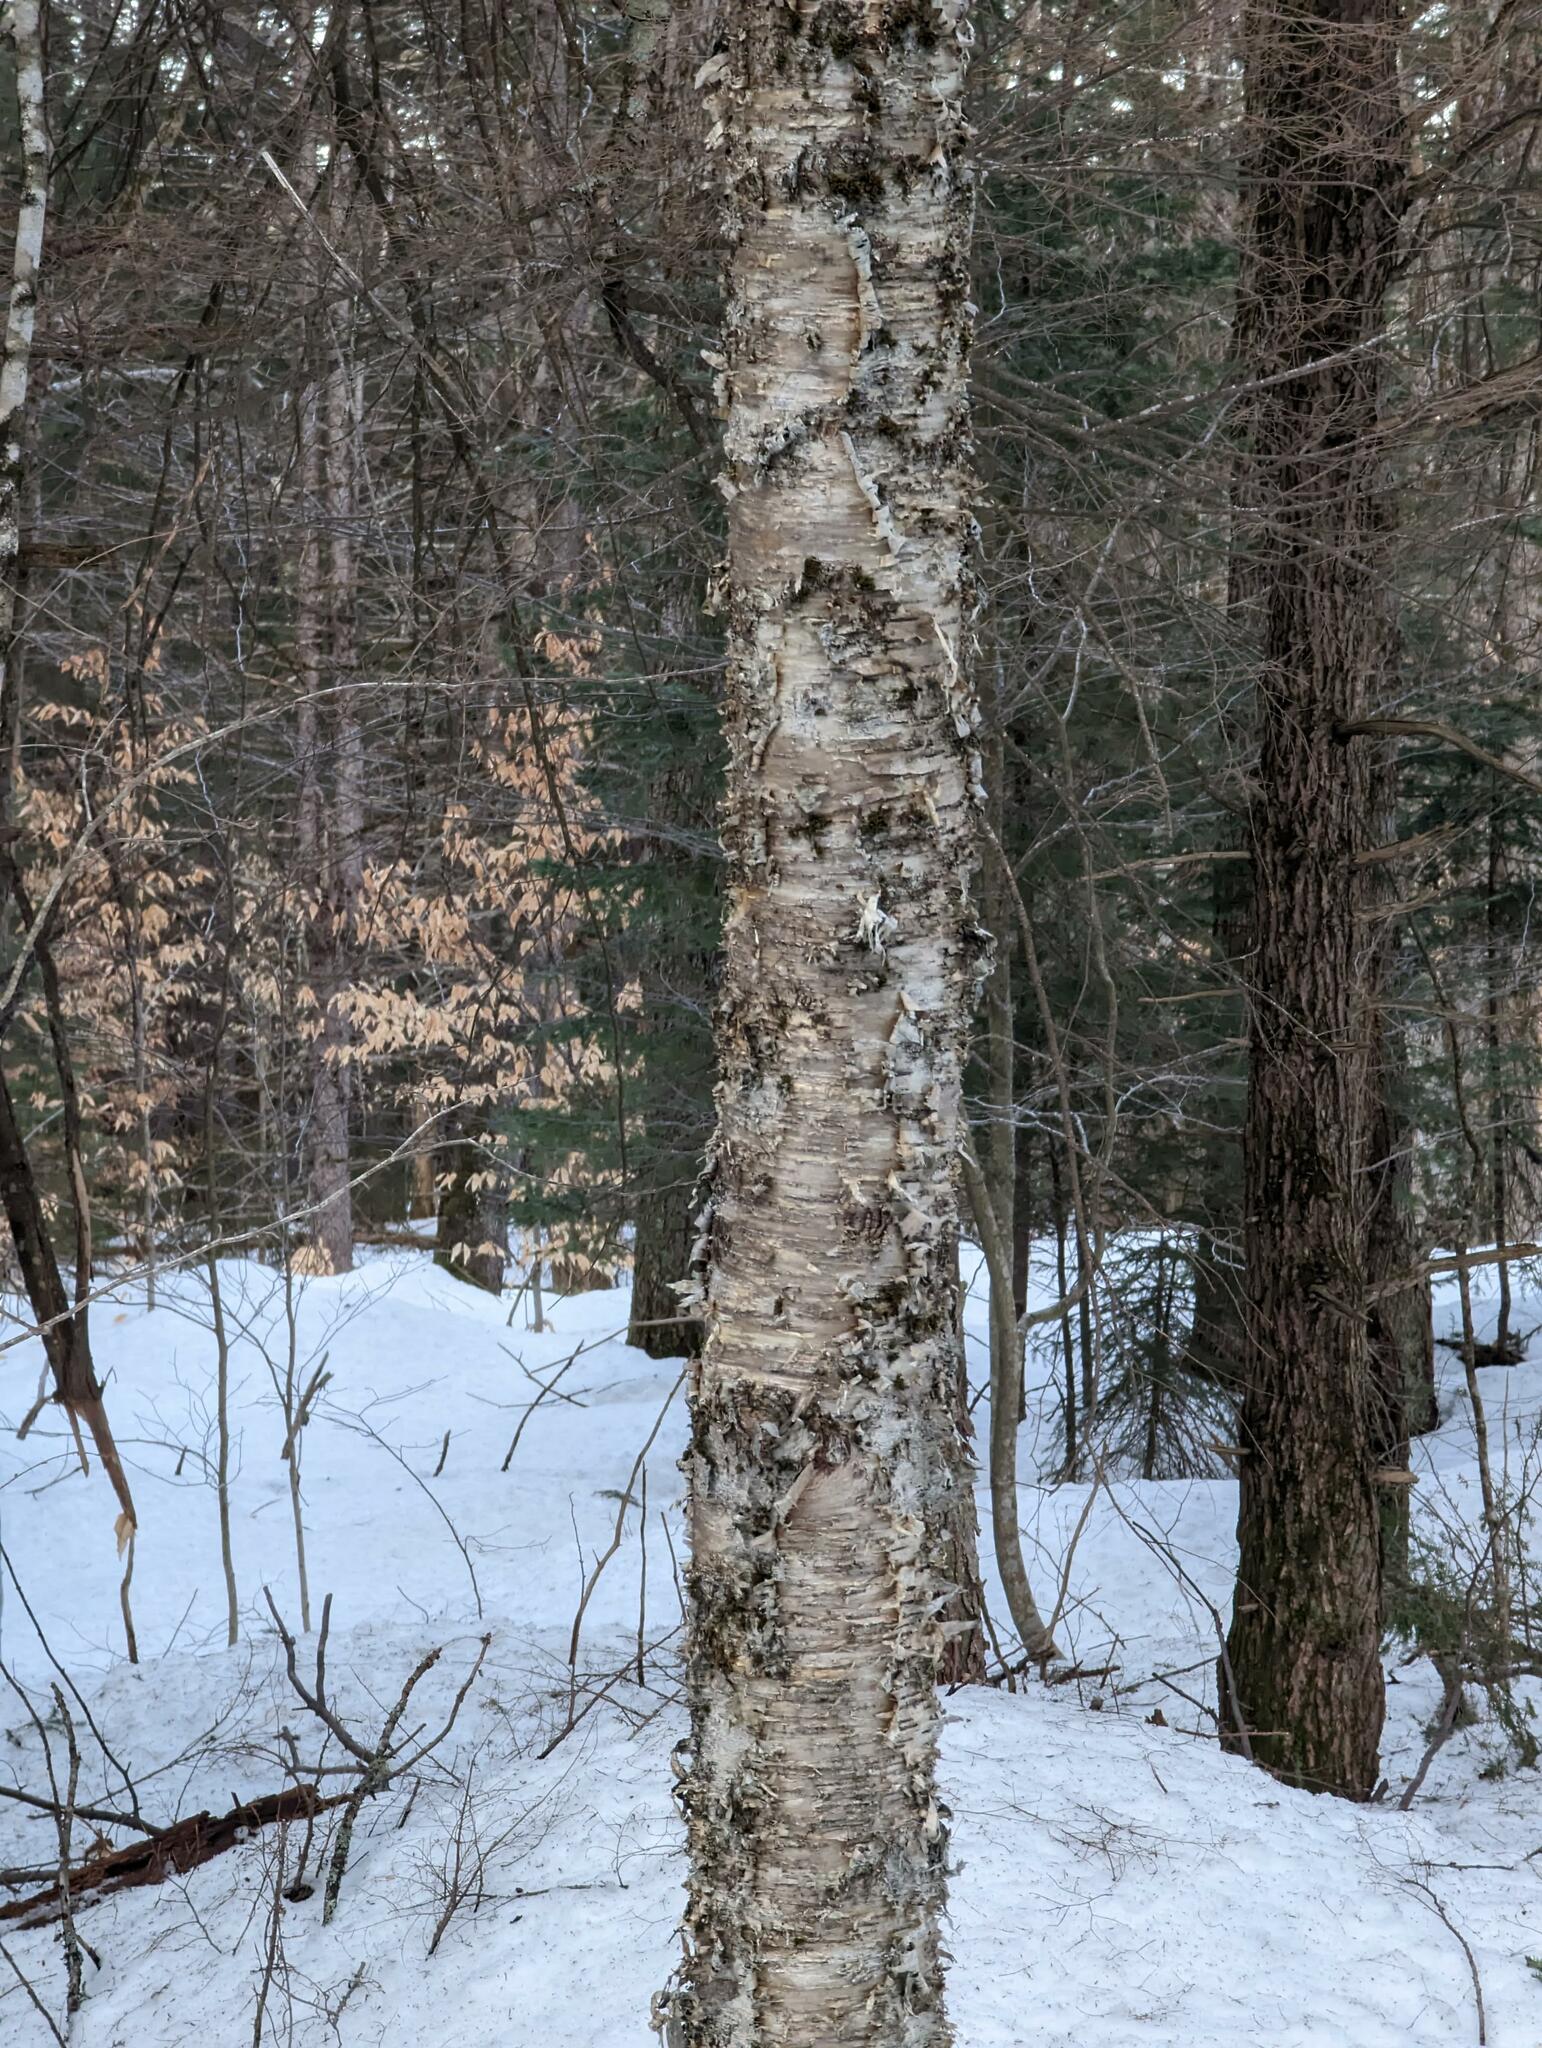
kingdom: Plantae
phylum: Tracheophyta
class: Magnoliopsida
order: Fagales
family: Betulaceae
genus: Betula
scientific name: Betula alleghaniensis
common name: Yellow birch
